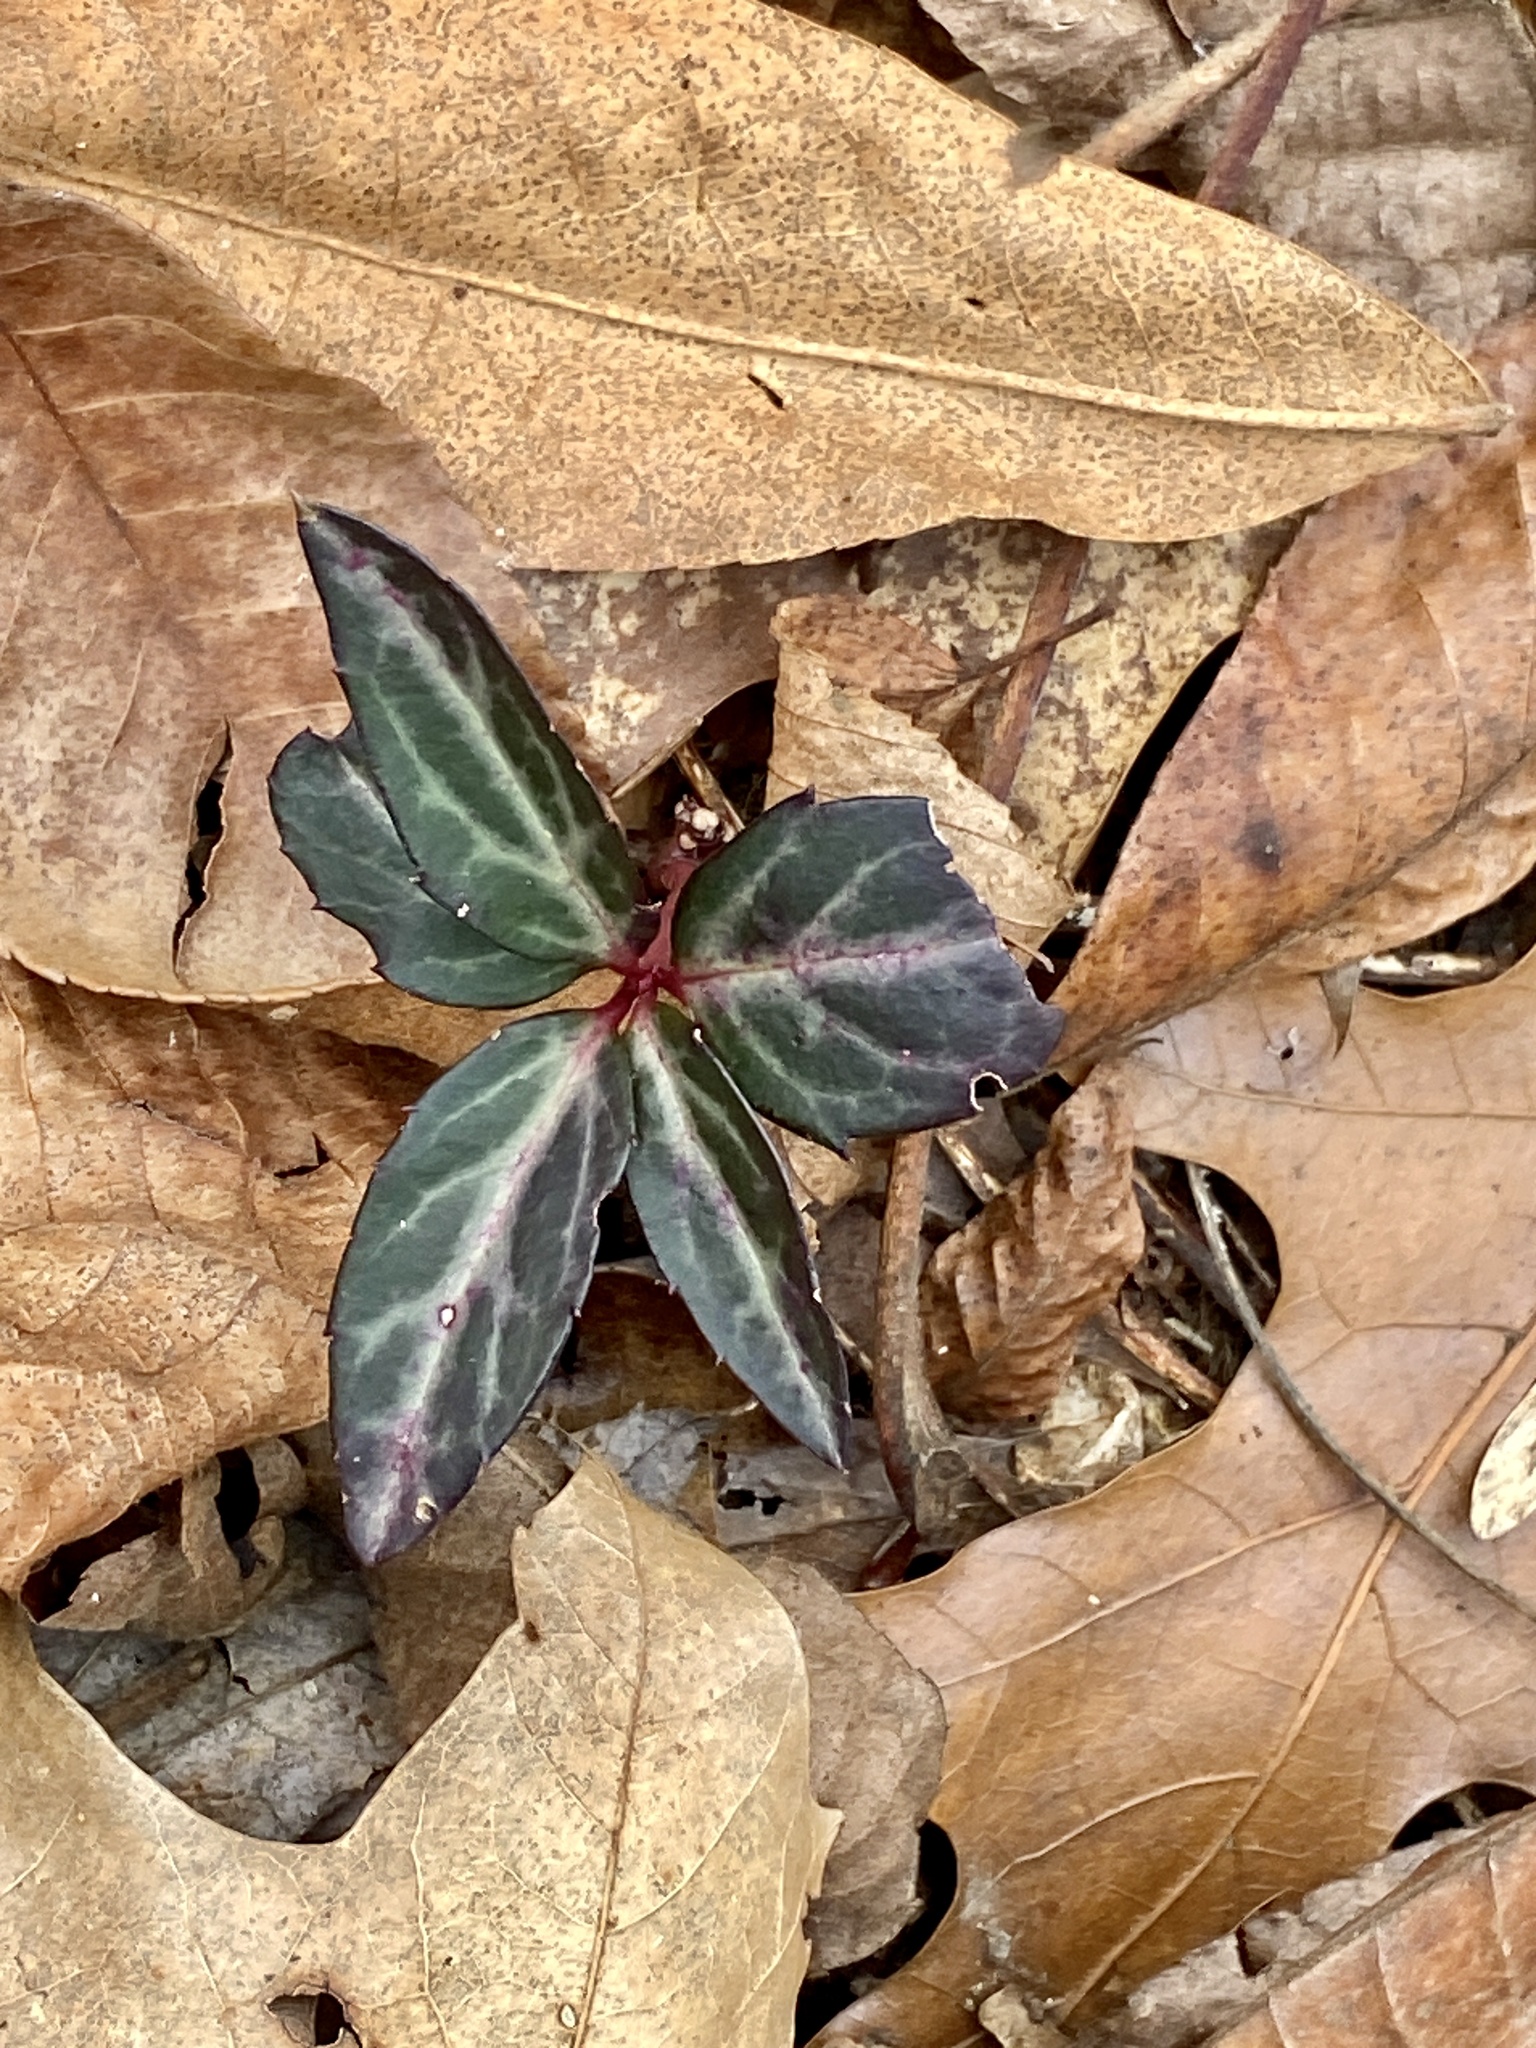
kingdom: Plantae
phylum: Tracheophyta
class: Magnoliopsida
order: Ericales
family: Ericaceae
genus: Chimaphila
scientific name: Chimaphila maculata
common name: Spotted pipsissewa
